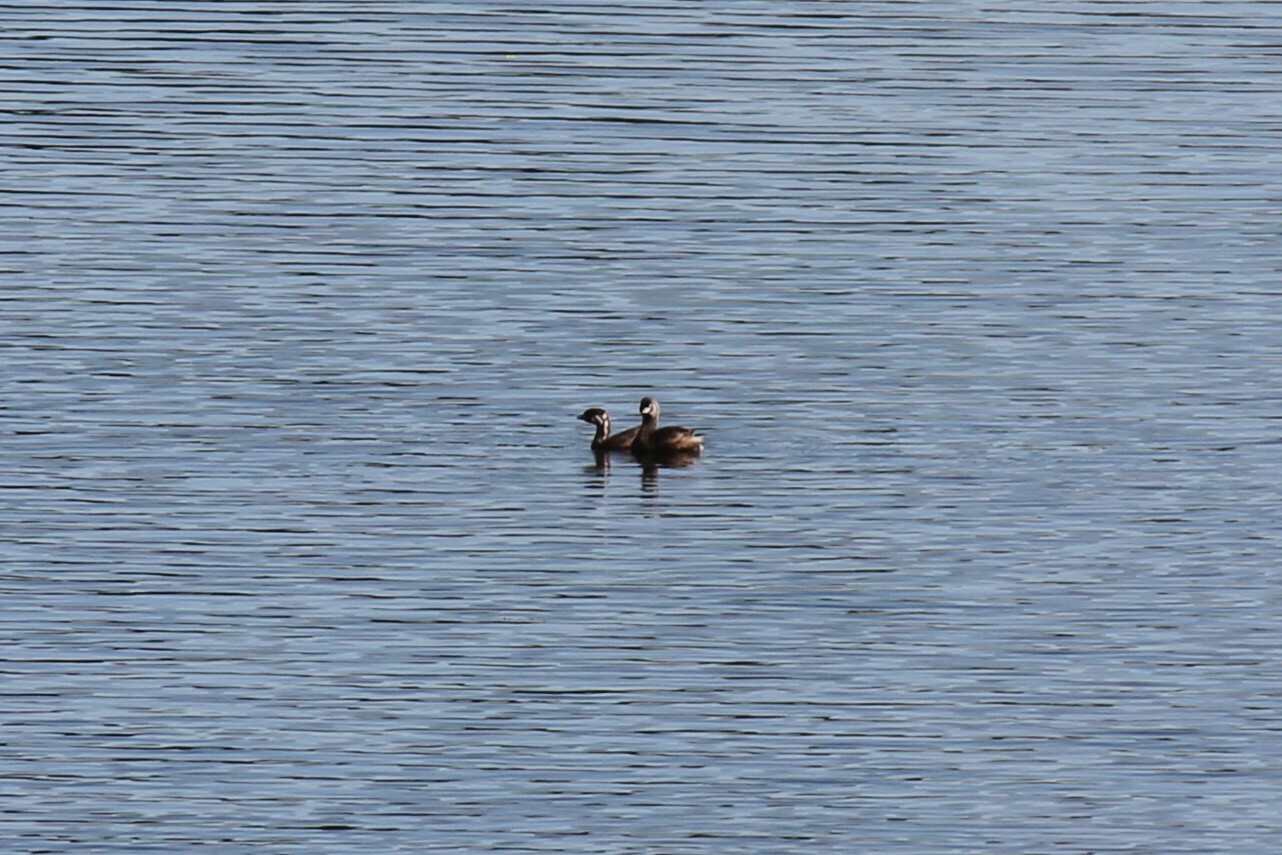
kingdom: Animalia
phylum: Chordata
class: Aves
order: Podicipediformes
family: Podicipedidae
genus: Podilymbus
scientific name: Podilymbus podiceps
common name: Pied-billed grebe
